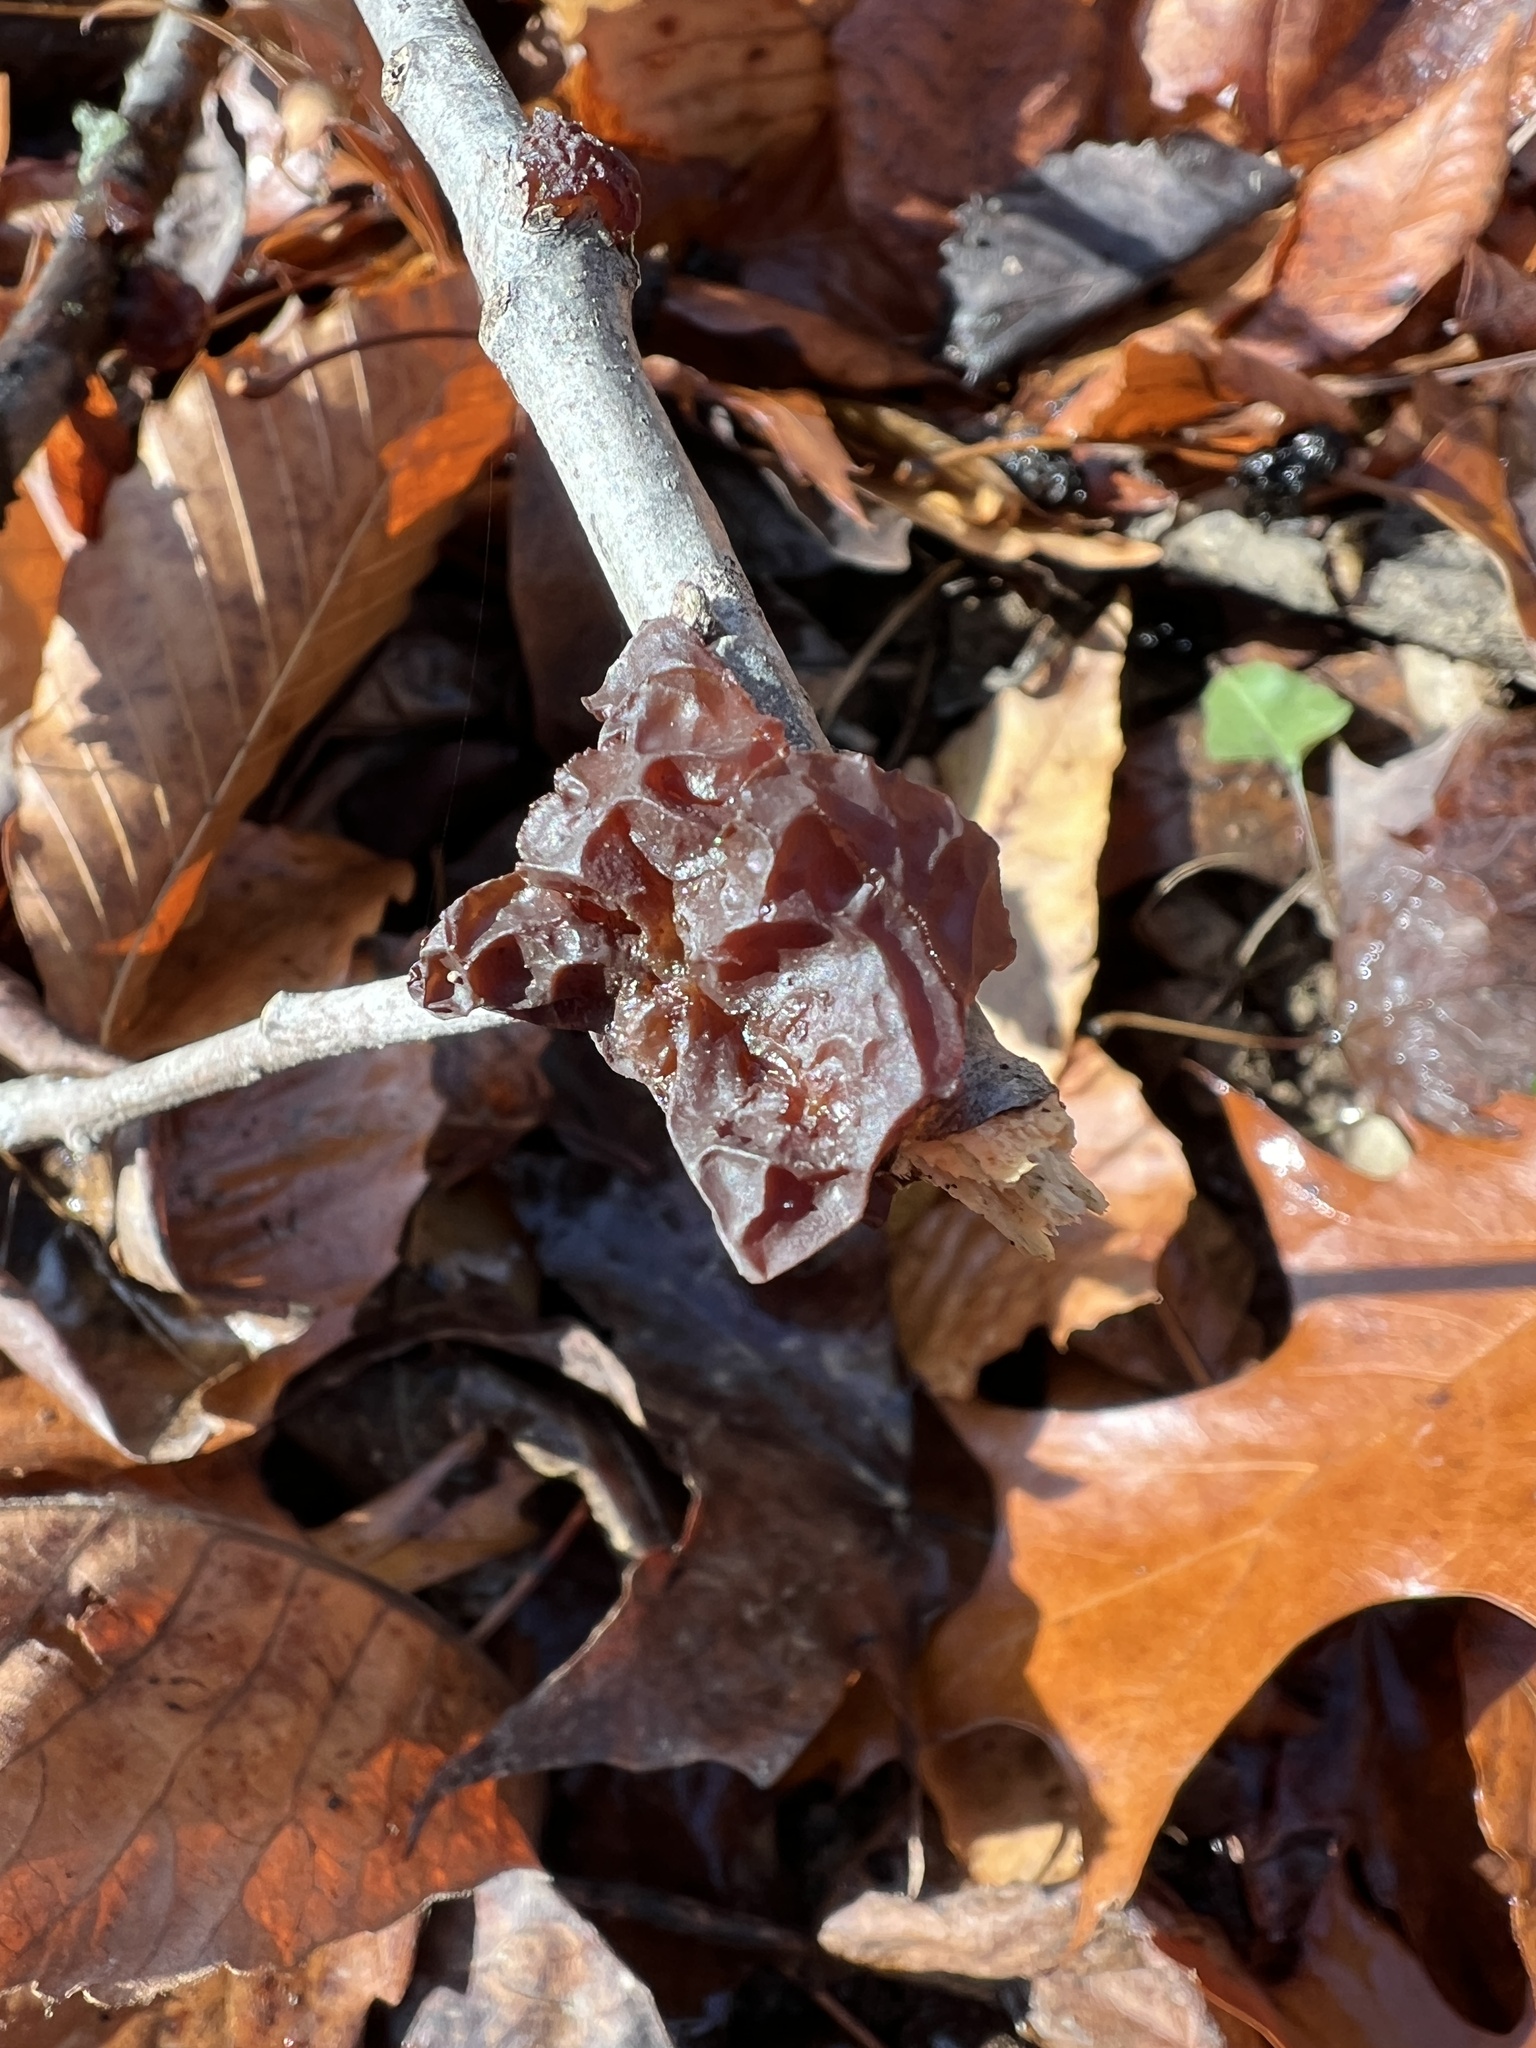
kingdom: Fungi
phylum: Basidiomycota
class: Agaricomycetes
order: Auriculariales
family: Auriculariaceae
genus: Exidia
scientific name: Exidia
